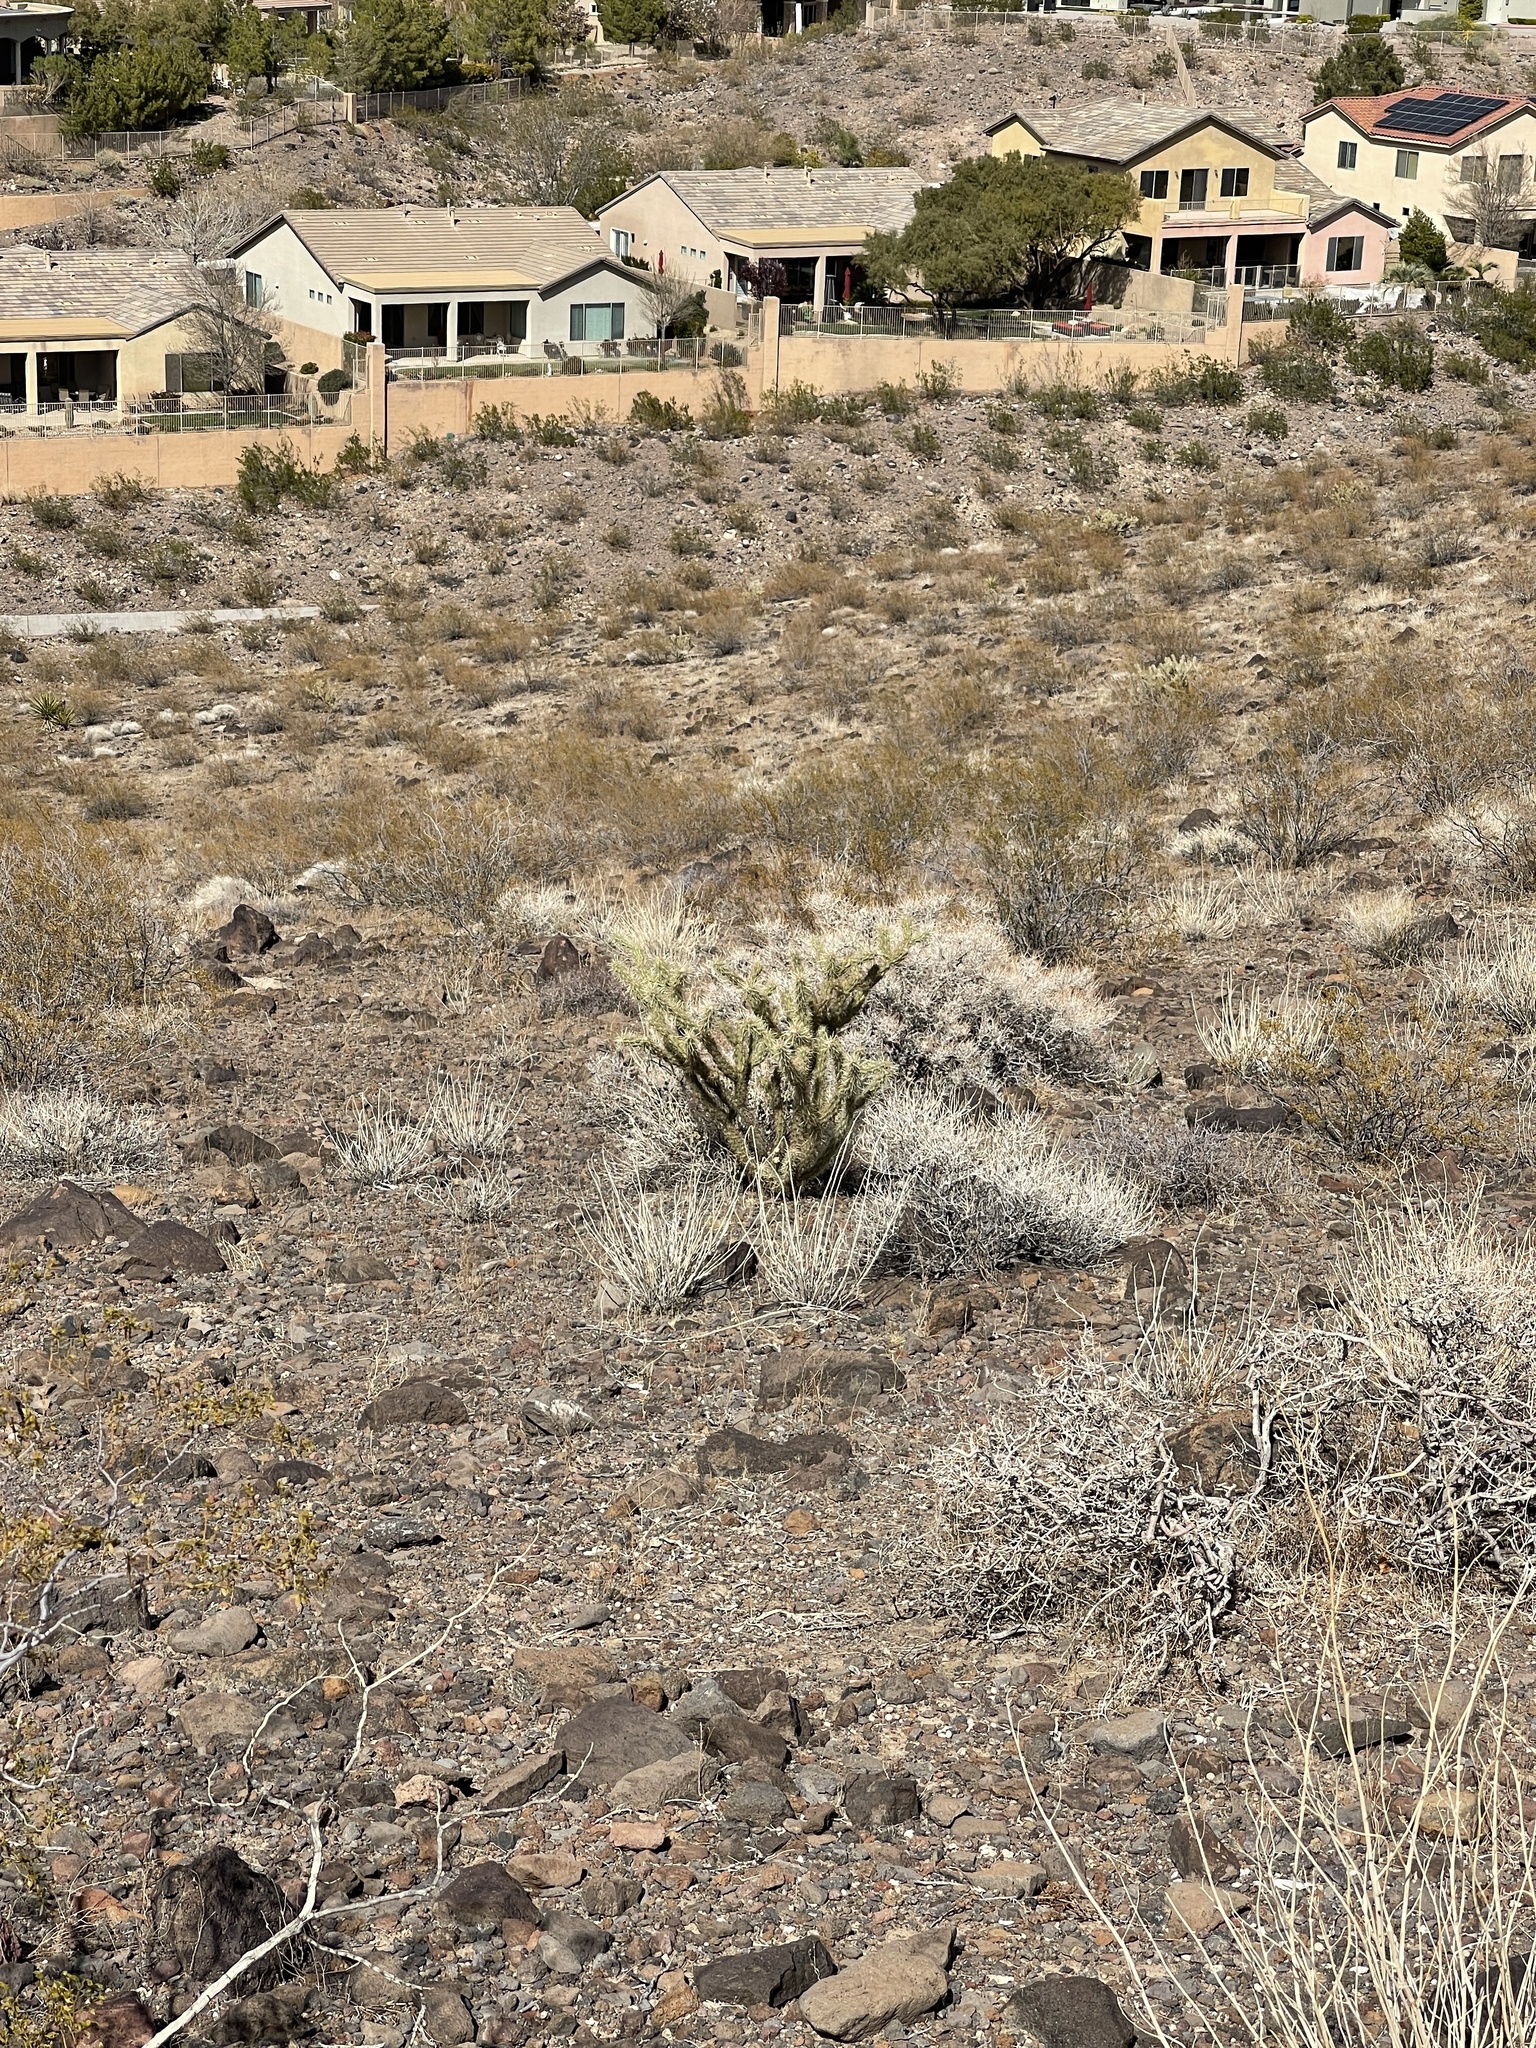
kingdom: Plantae
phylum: Tracheophyta
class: Magnoliopsida
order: Caryophyllales
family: Cactaceae
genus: Cylindropuntia
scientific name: Cylindropuntia acanthocarpa
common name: Buckhorn cholla
